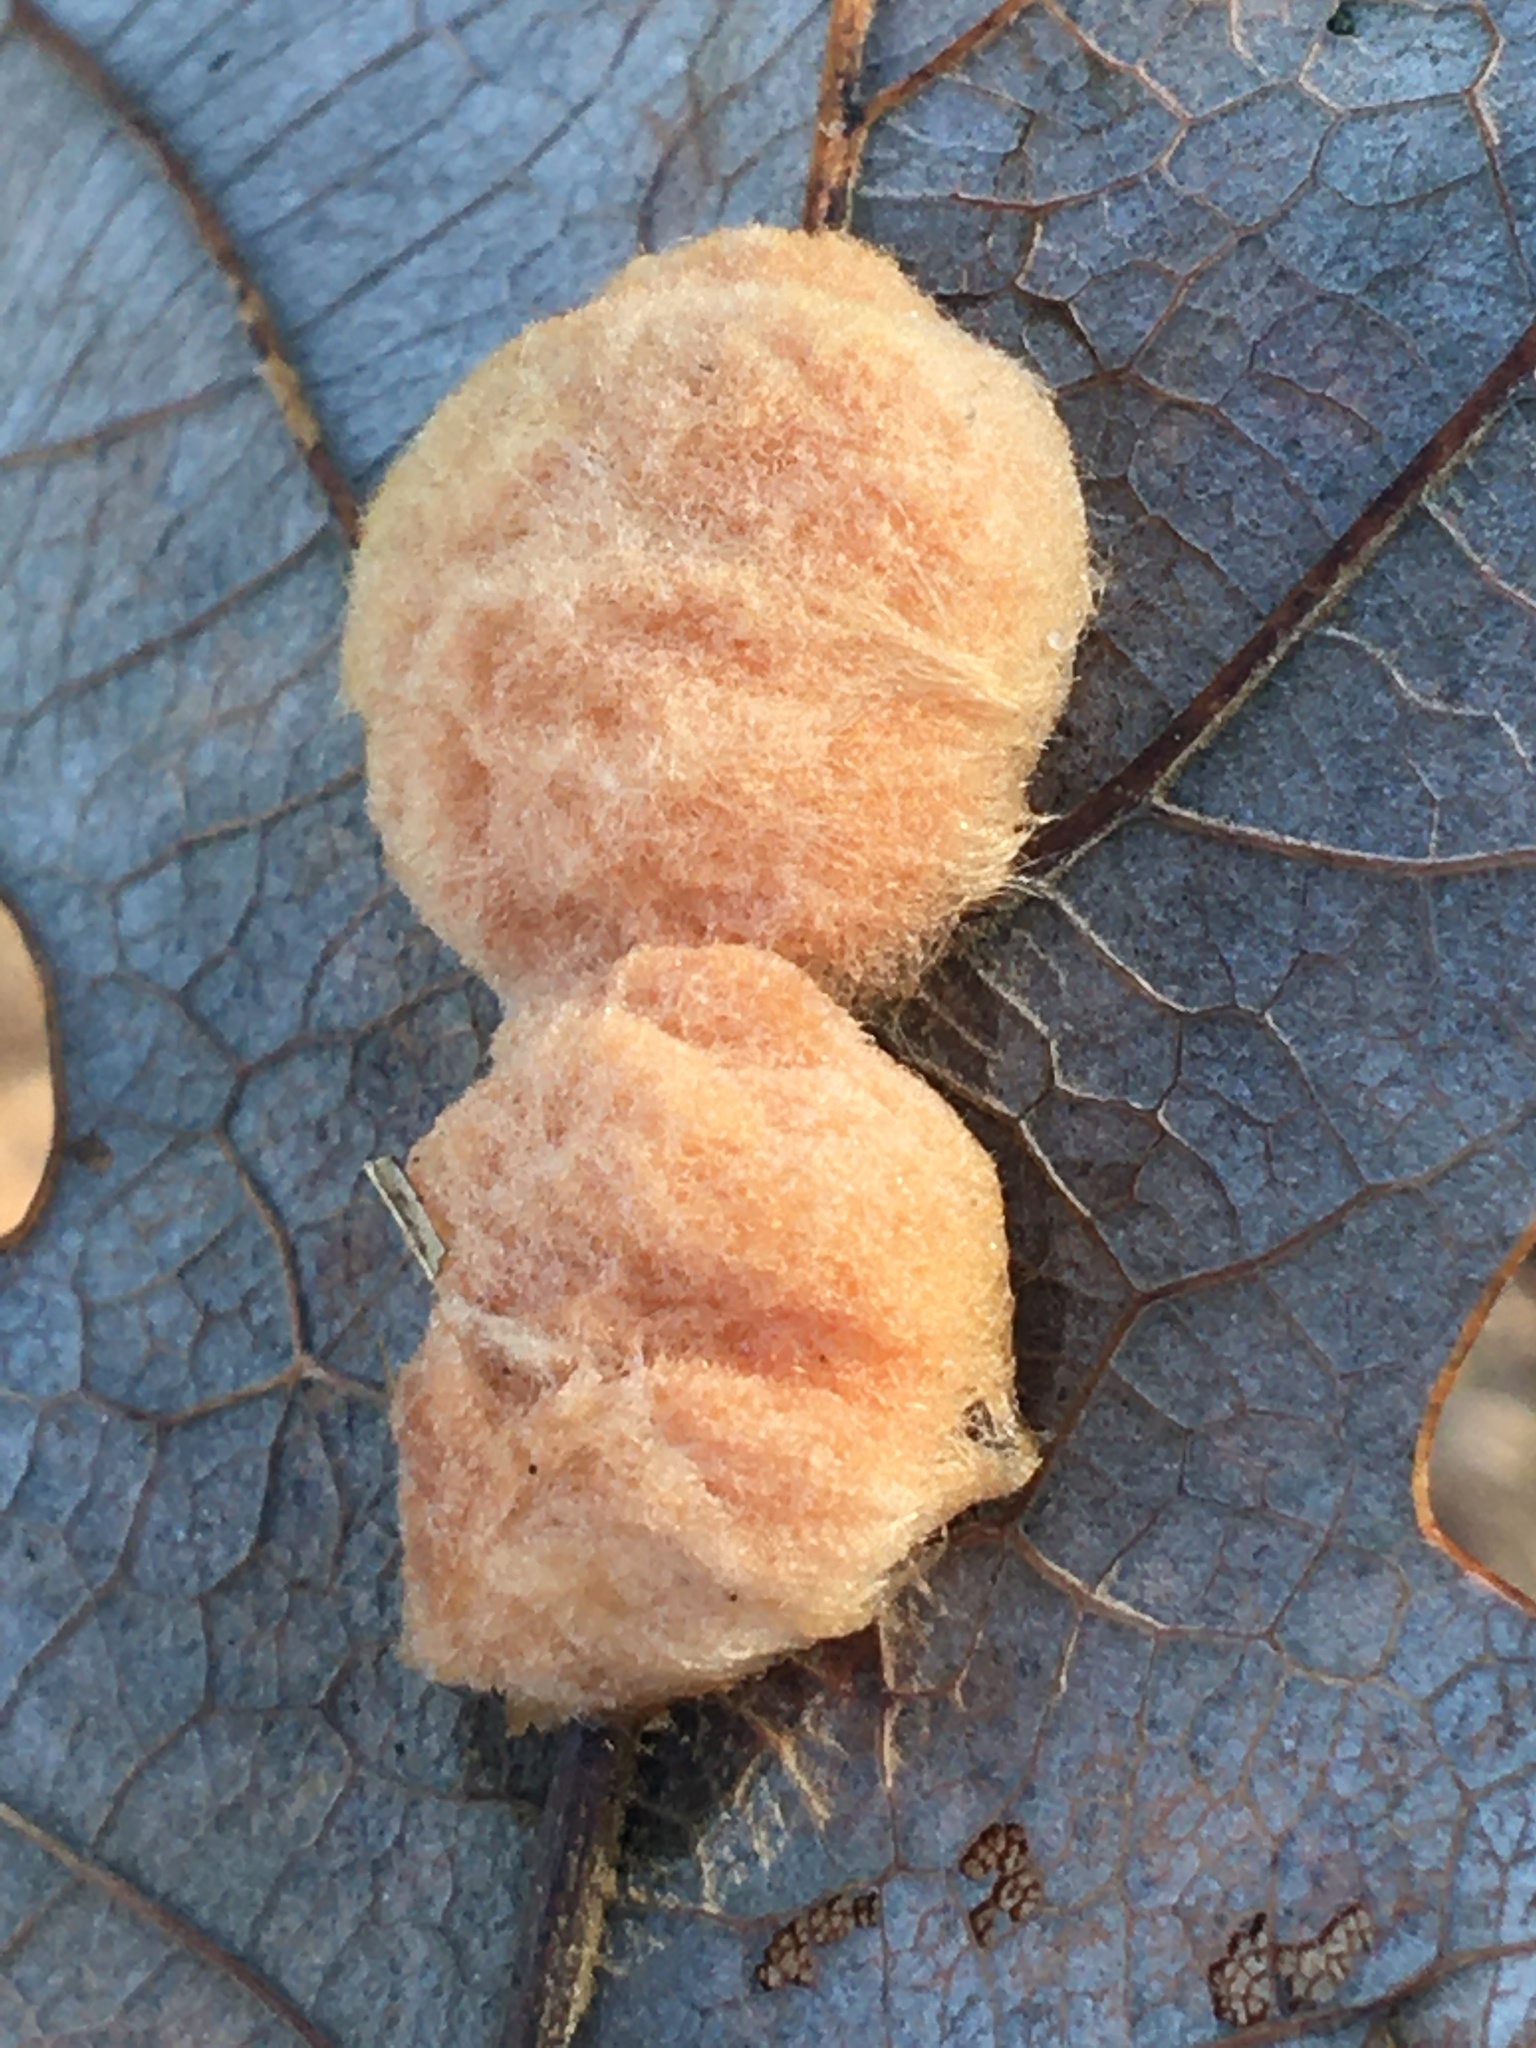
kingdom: Animalia
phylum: Arthropoda
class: Insecta
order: Hymenoptera
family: Cynipidae
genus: Andricus
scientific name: Andricus Druon pattoni
